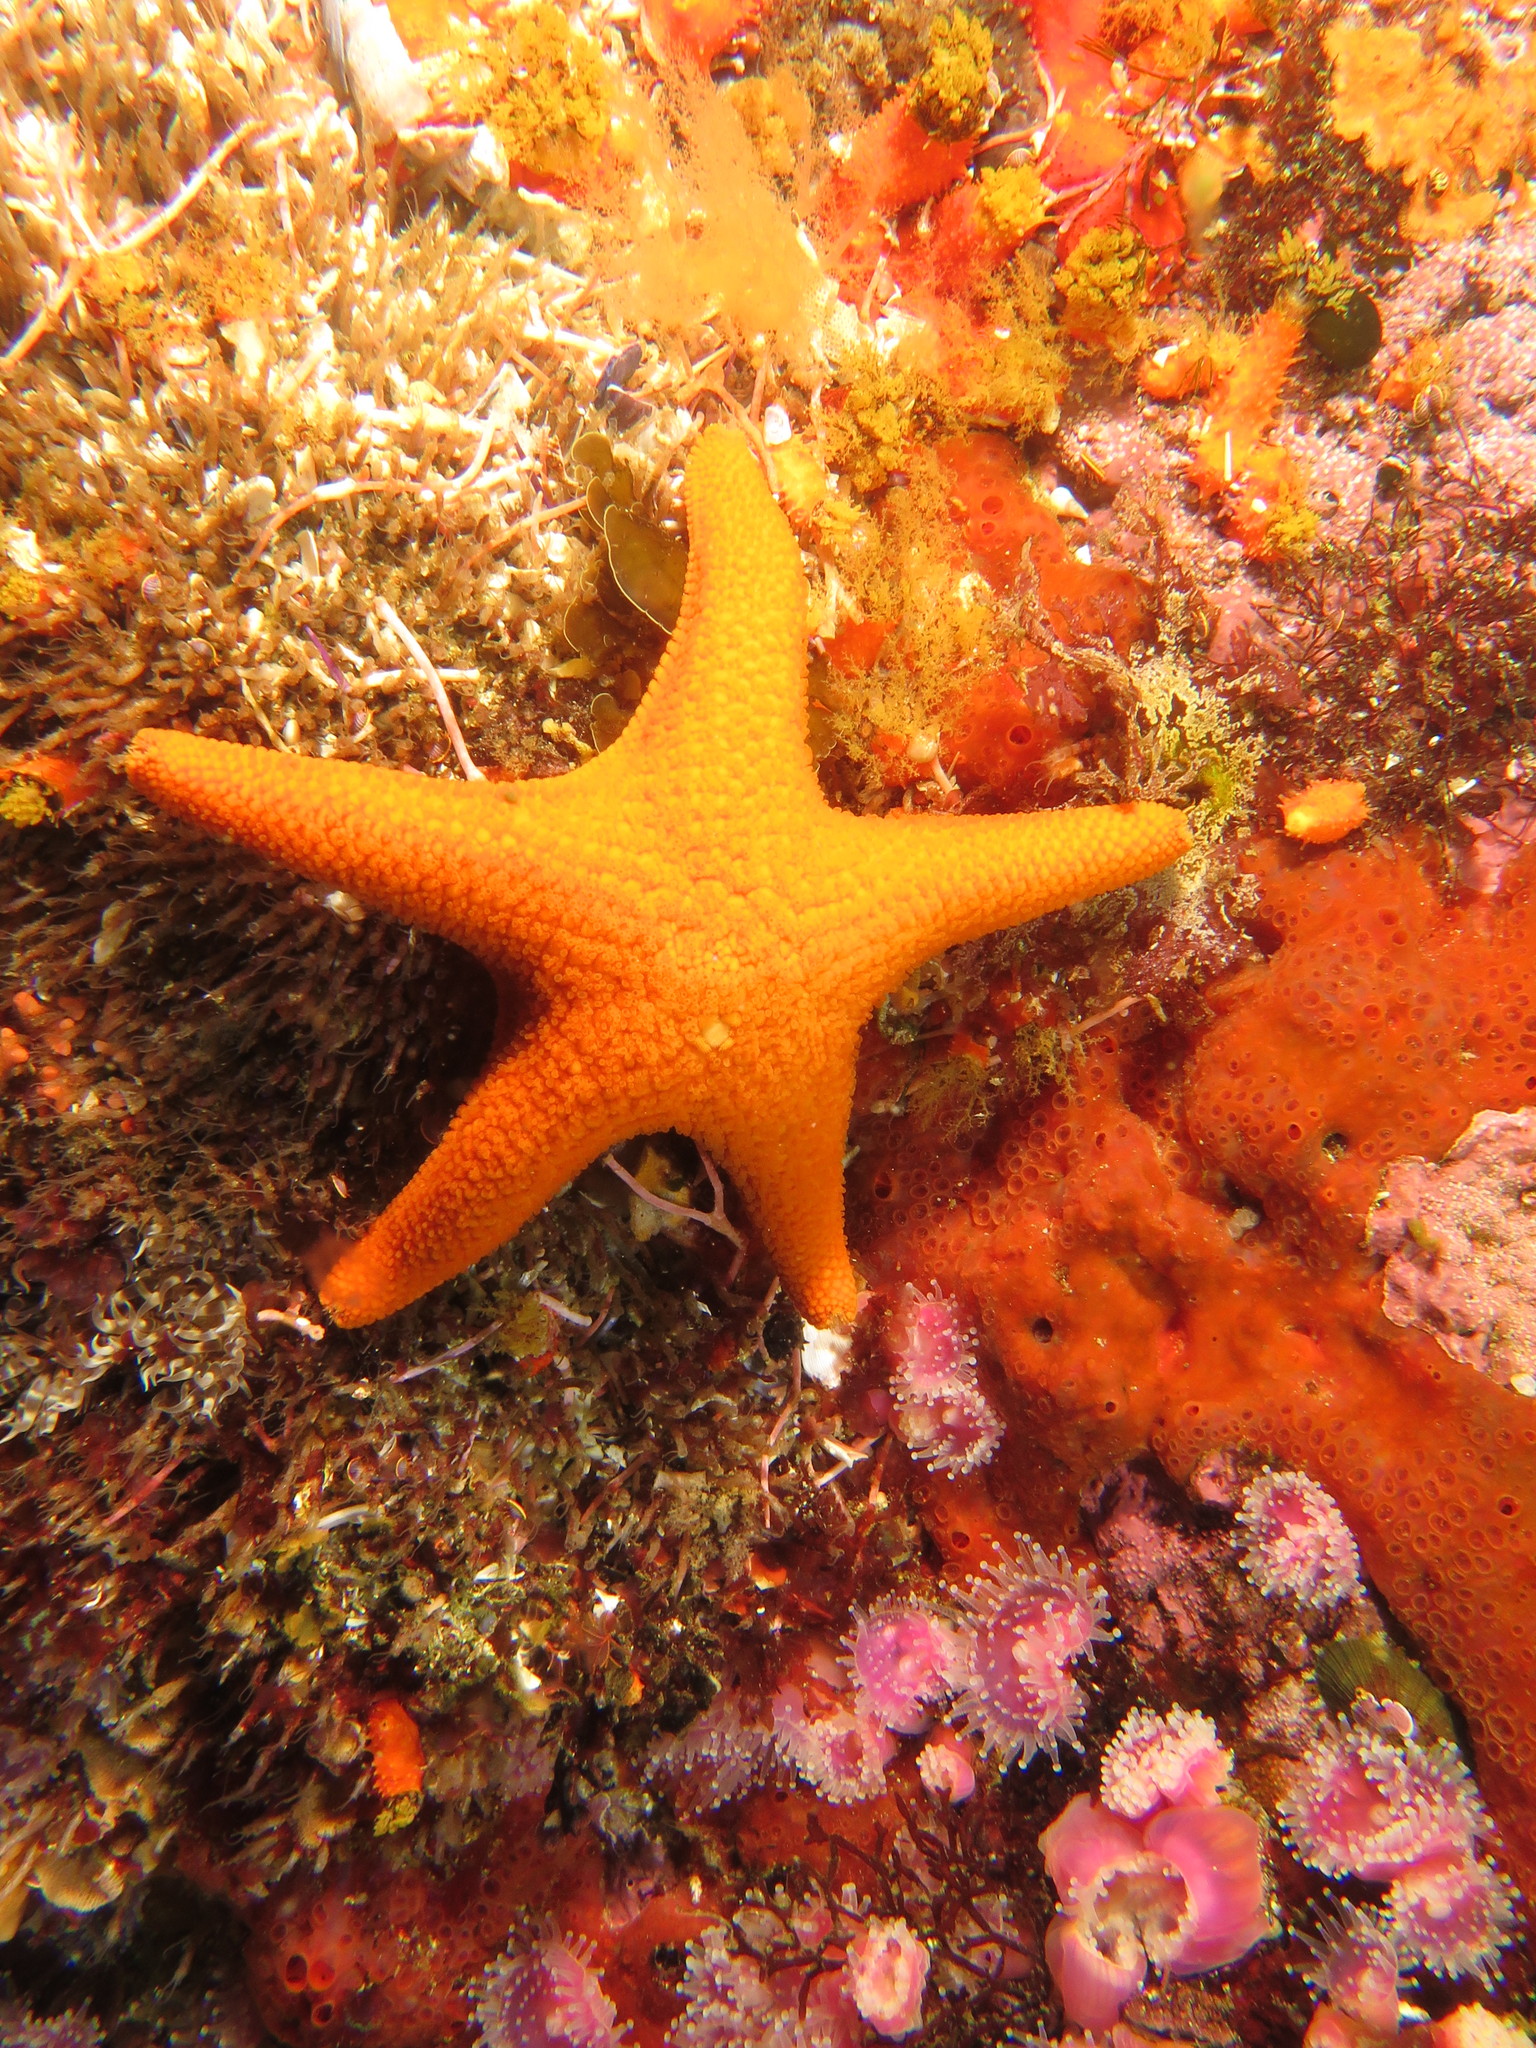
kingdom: Animalia
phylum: Echinodermata
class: Asteroidea
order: Valvatida
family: Asterinidae
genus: Callopatiria
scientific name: Callopatiria granifera
